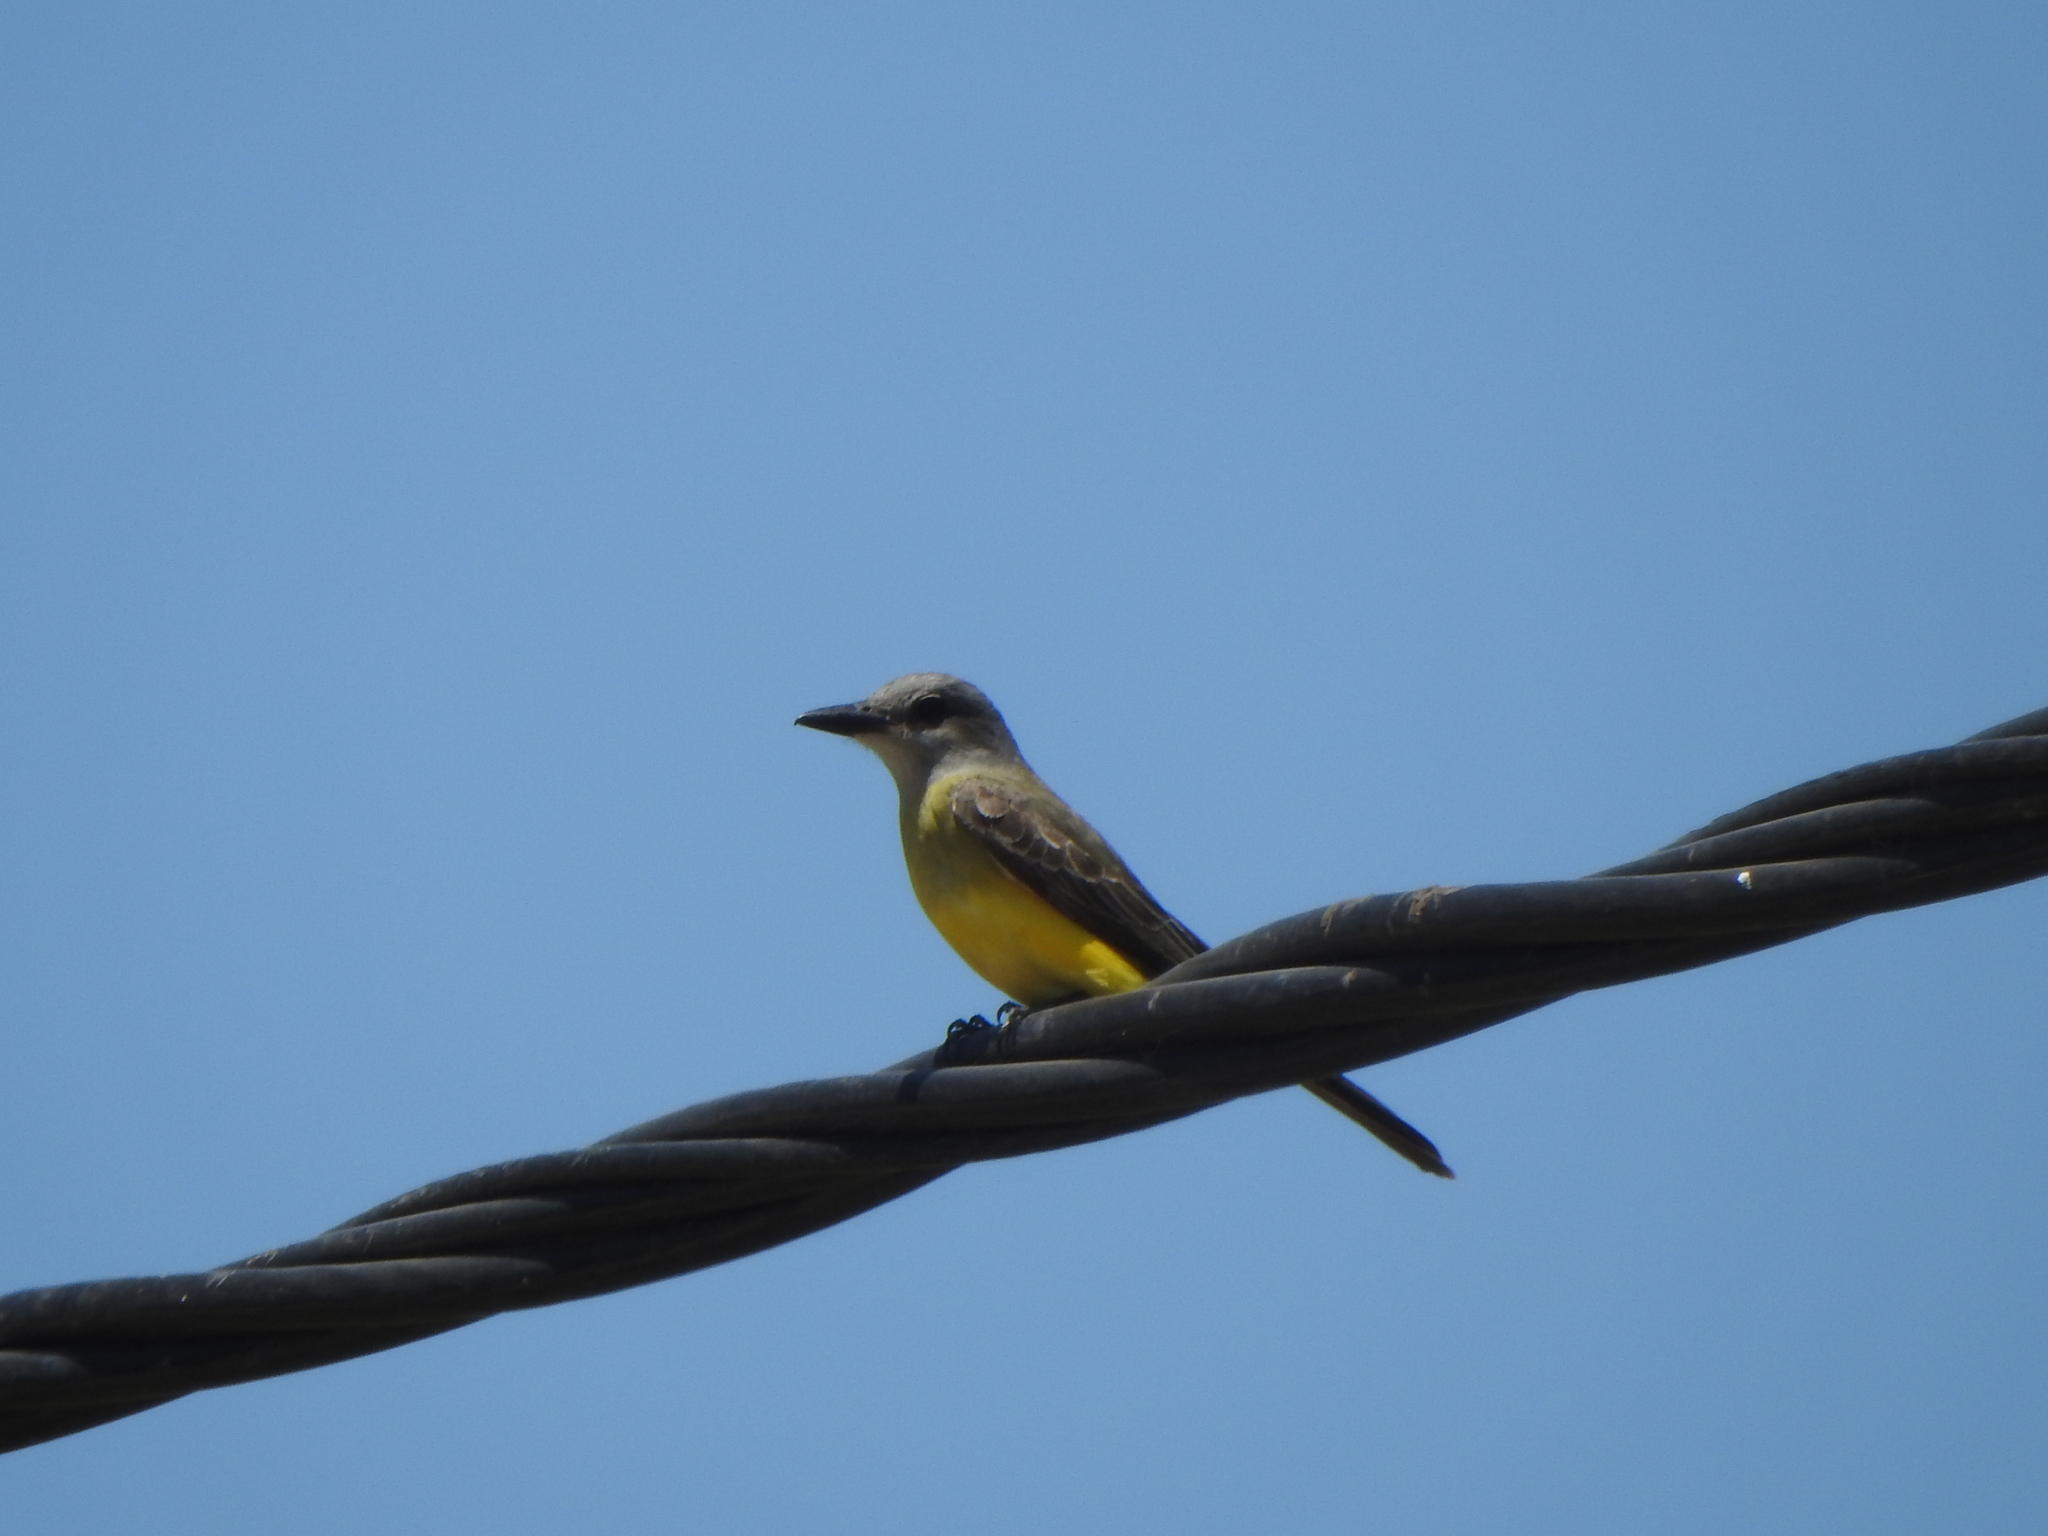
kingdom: Animalia
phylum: Chordata
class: Aves
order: Passeriformes
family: Tyrannidae
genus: Tyrannus
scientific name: Tyrannus melancholicus
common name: Tropical kingbird
